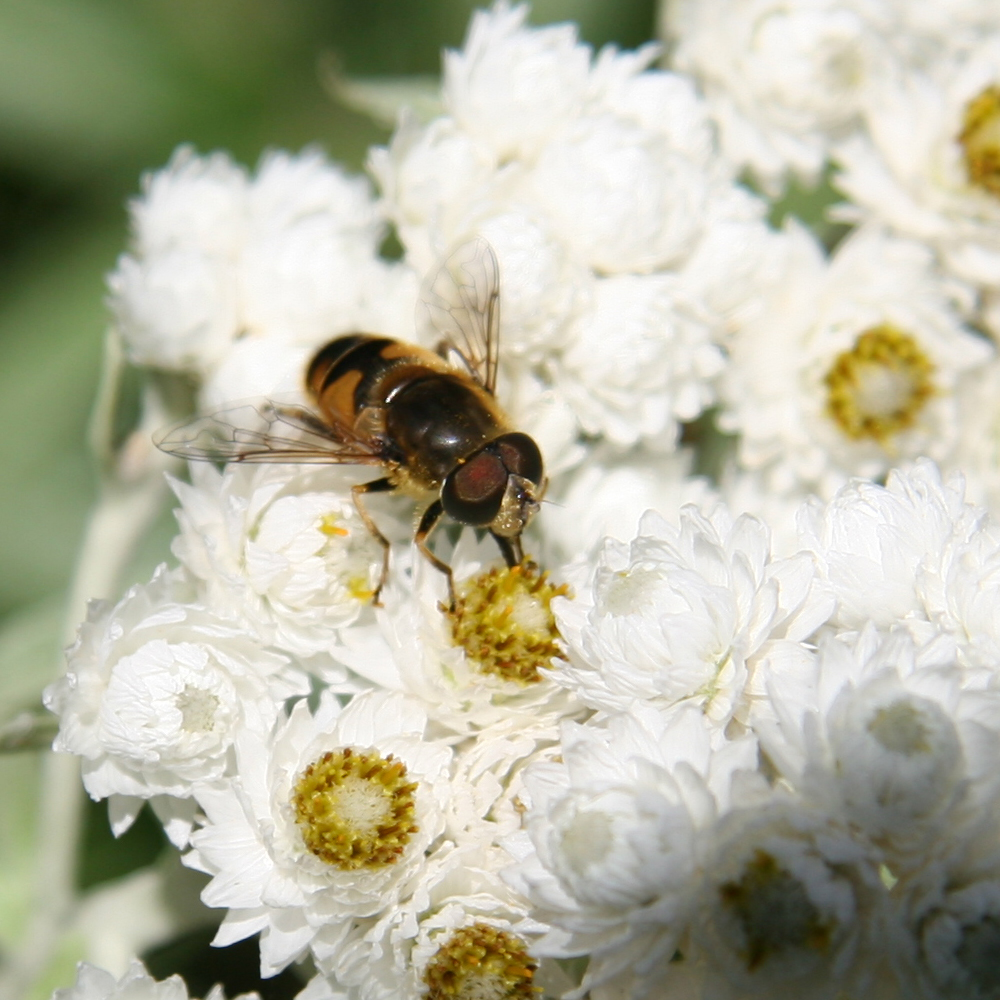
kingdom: Animalia
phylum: Arthropoda
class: Insecta
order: Diptera
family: Syrphidae
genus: Eristalis
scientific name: Eristalis nemorum
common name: Orange-spined drone fly
